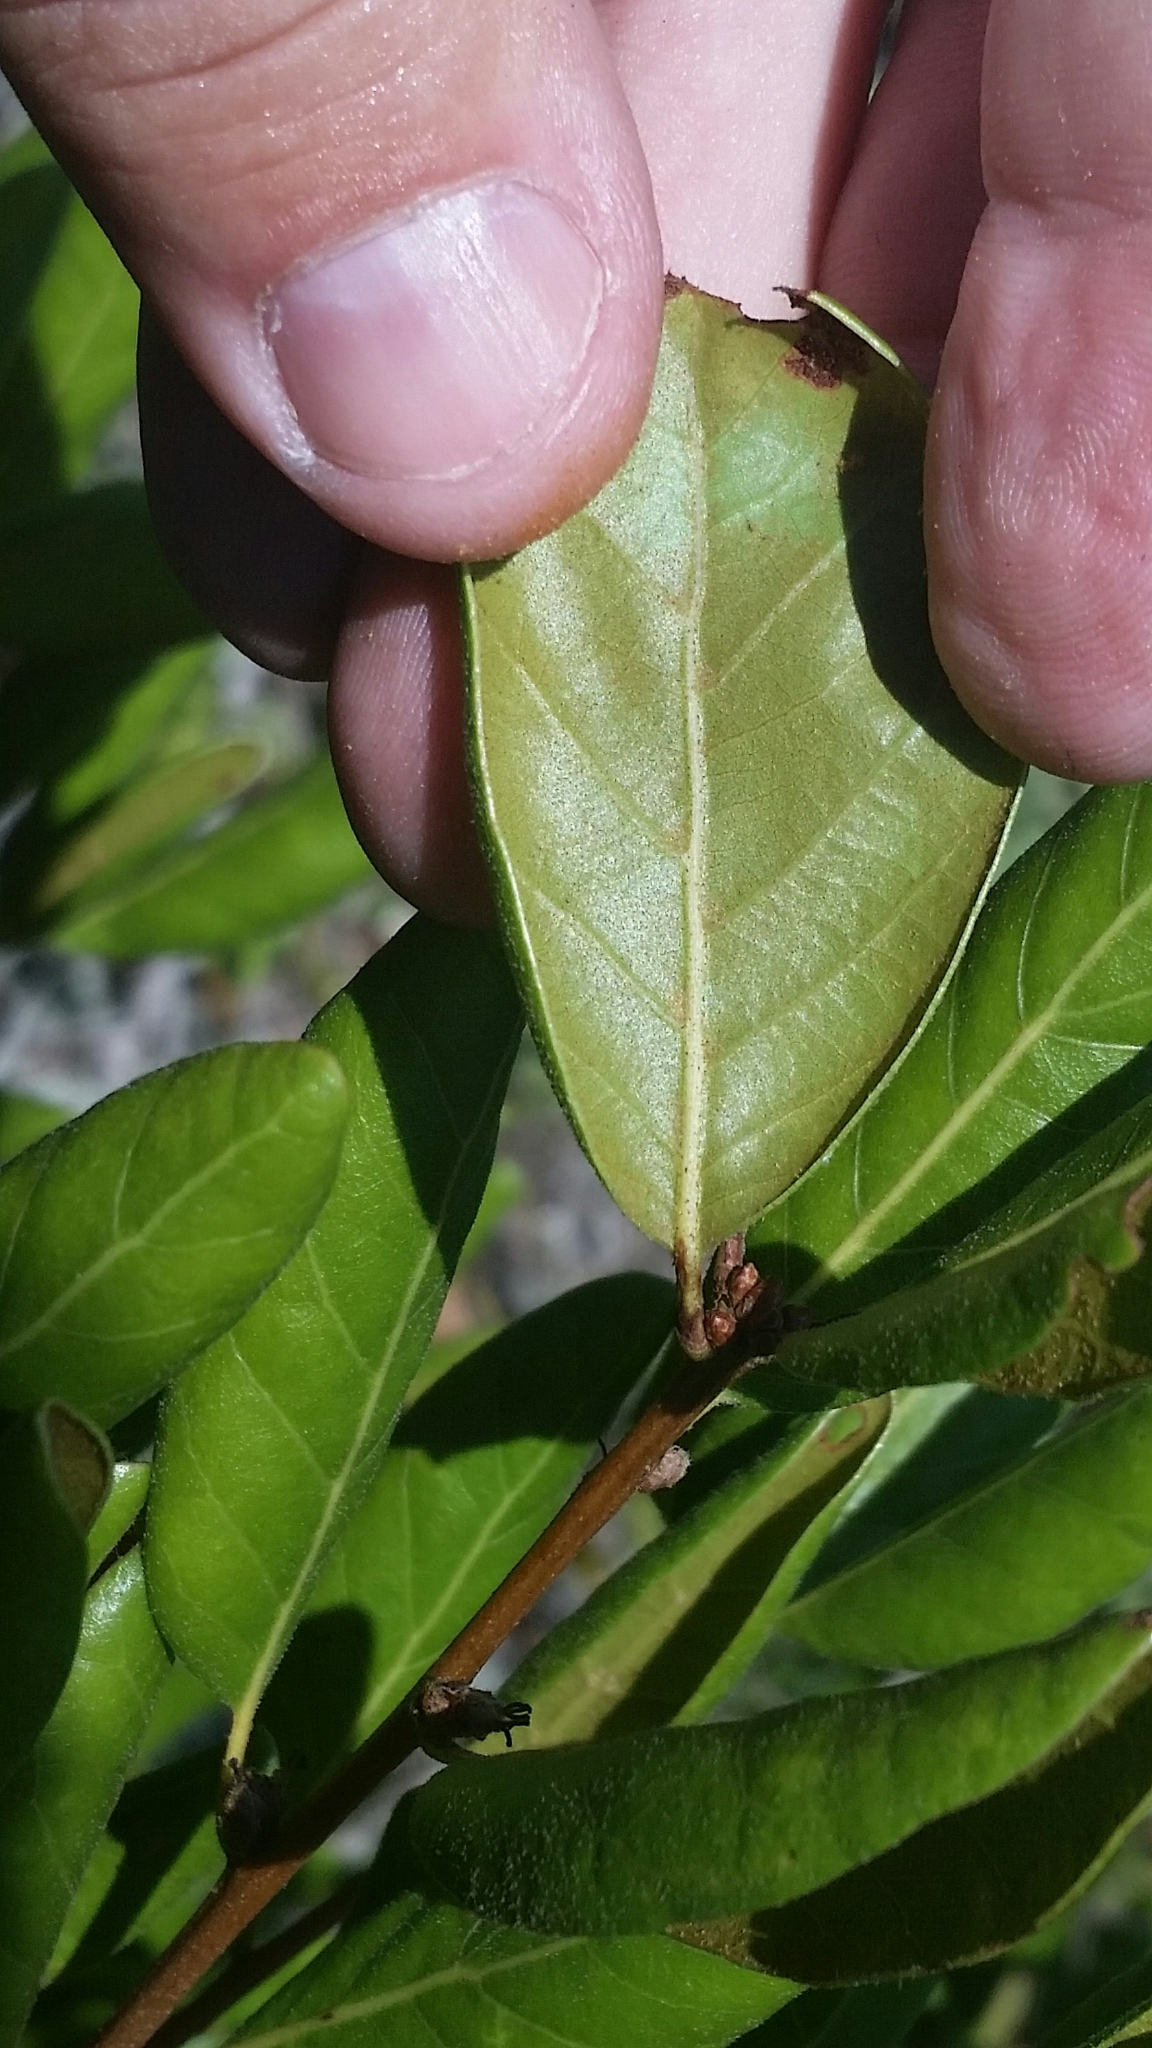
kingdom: Plantae
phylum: Tracheophyta
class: Magnoliopsida
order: Fagales
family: Fagaceae
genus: Quercus
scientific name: Quercus inopina
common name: Sandhill oak
